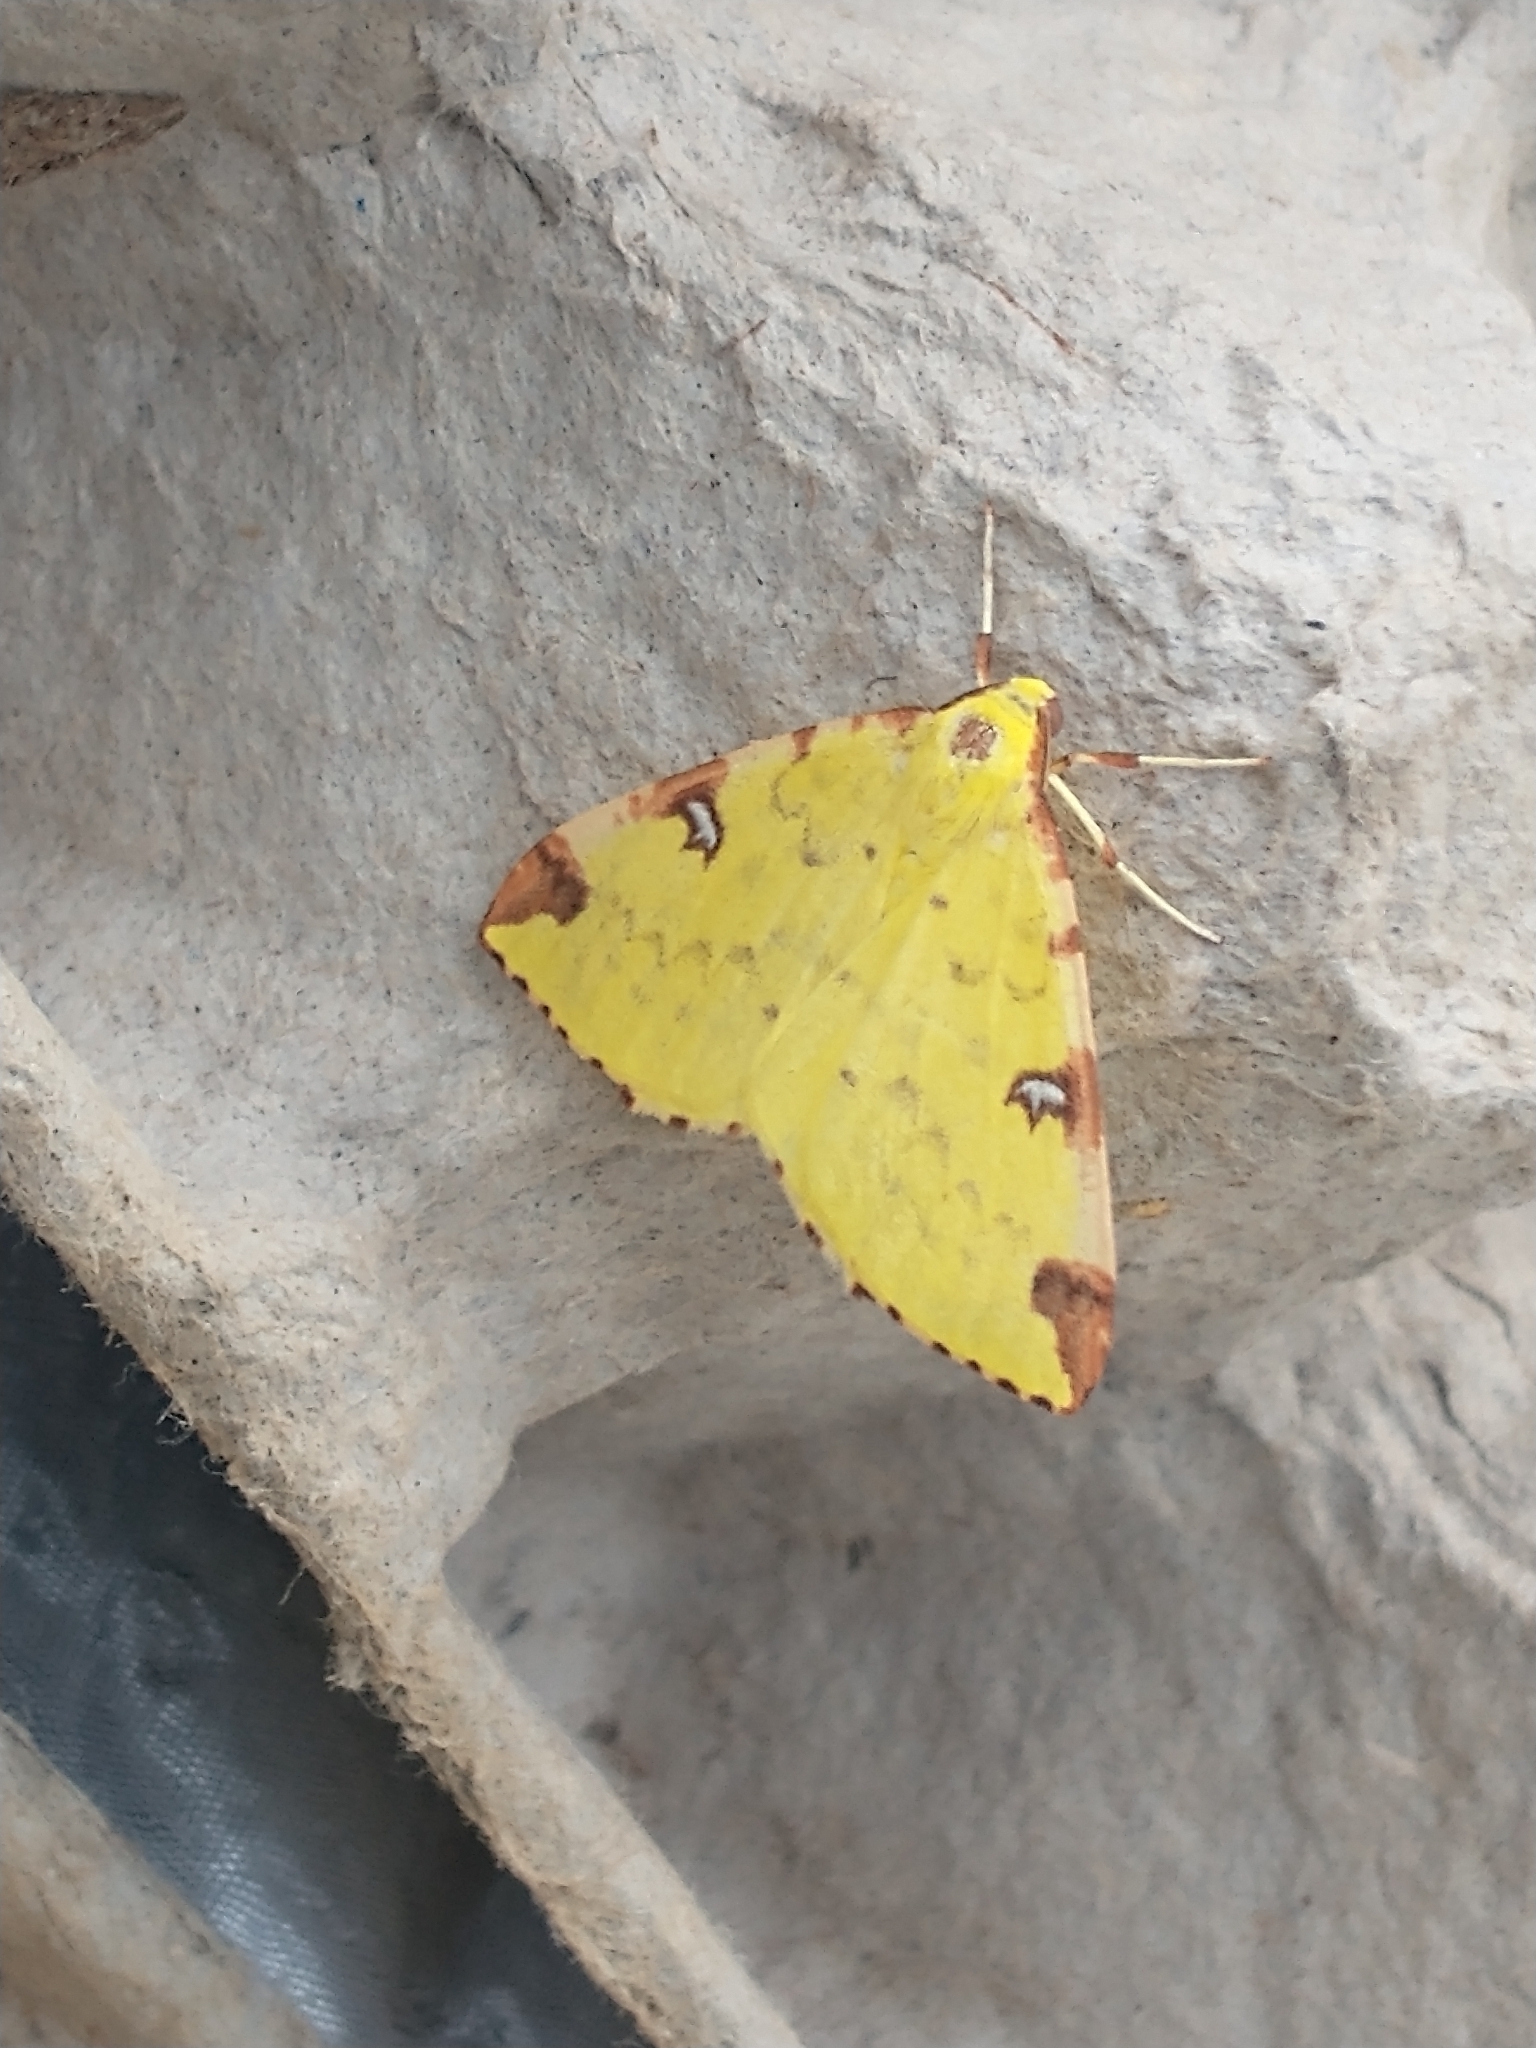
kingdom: Animalia
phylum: Arthropoda
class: Insecta
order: Lepidoptera
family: Geometridae
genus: Opisthograptis
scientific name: Opisthograptis luteolata
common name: Brimstone moth
